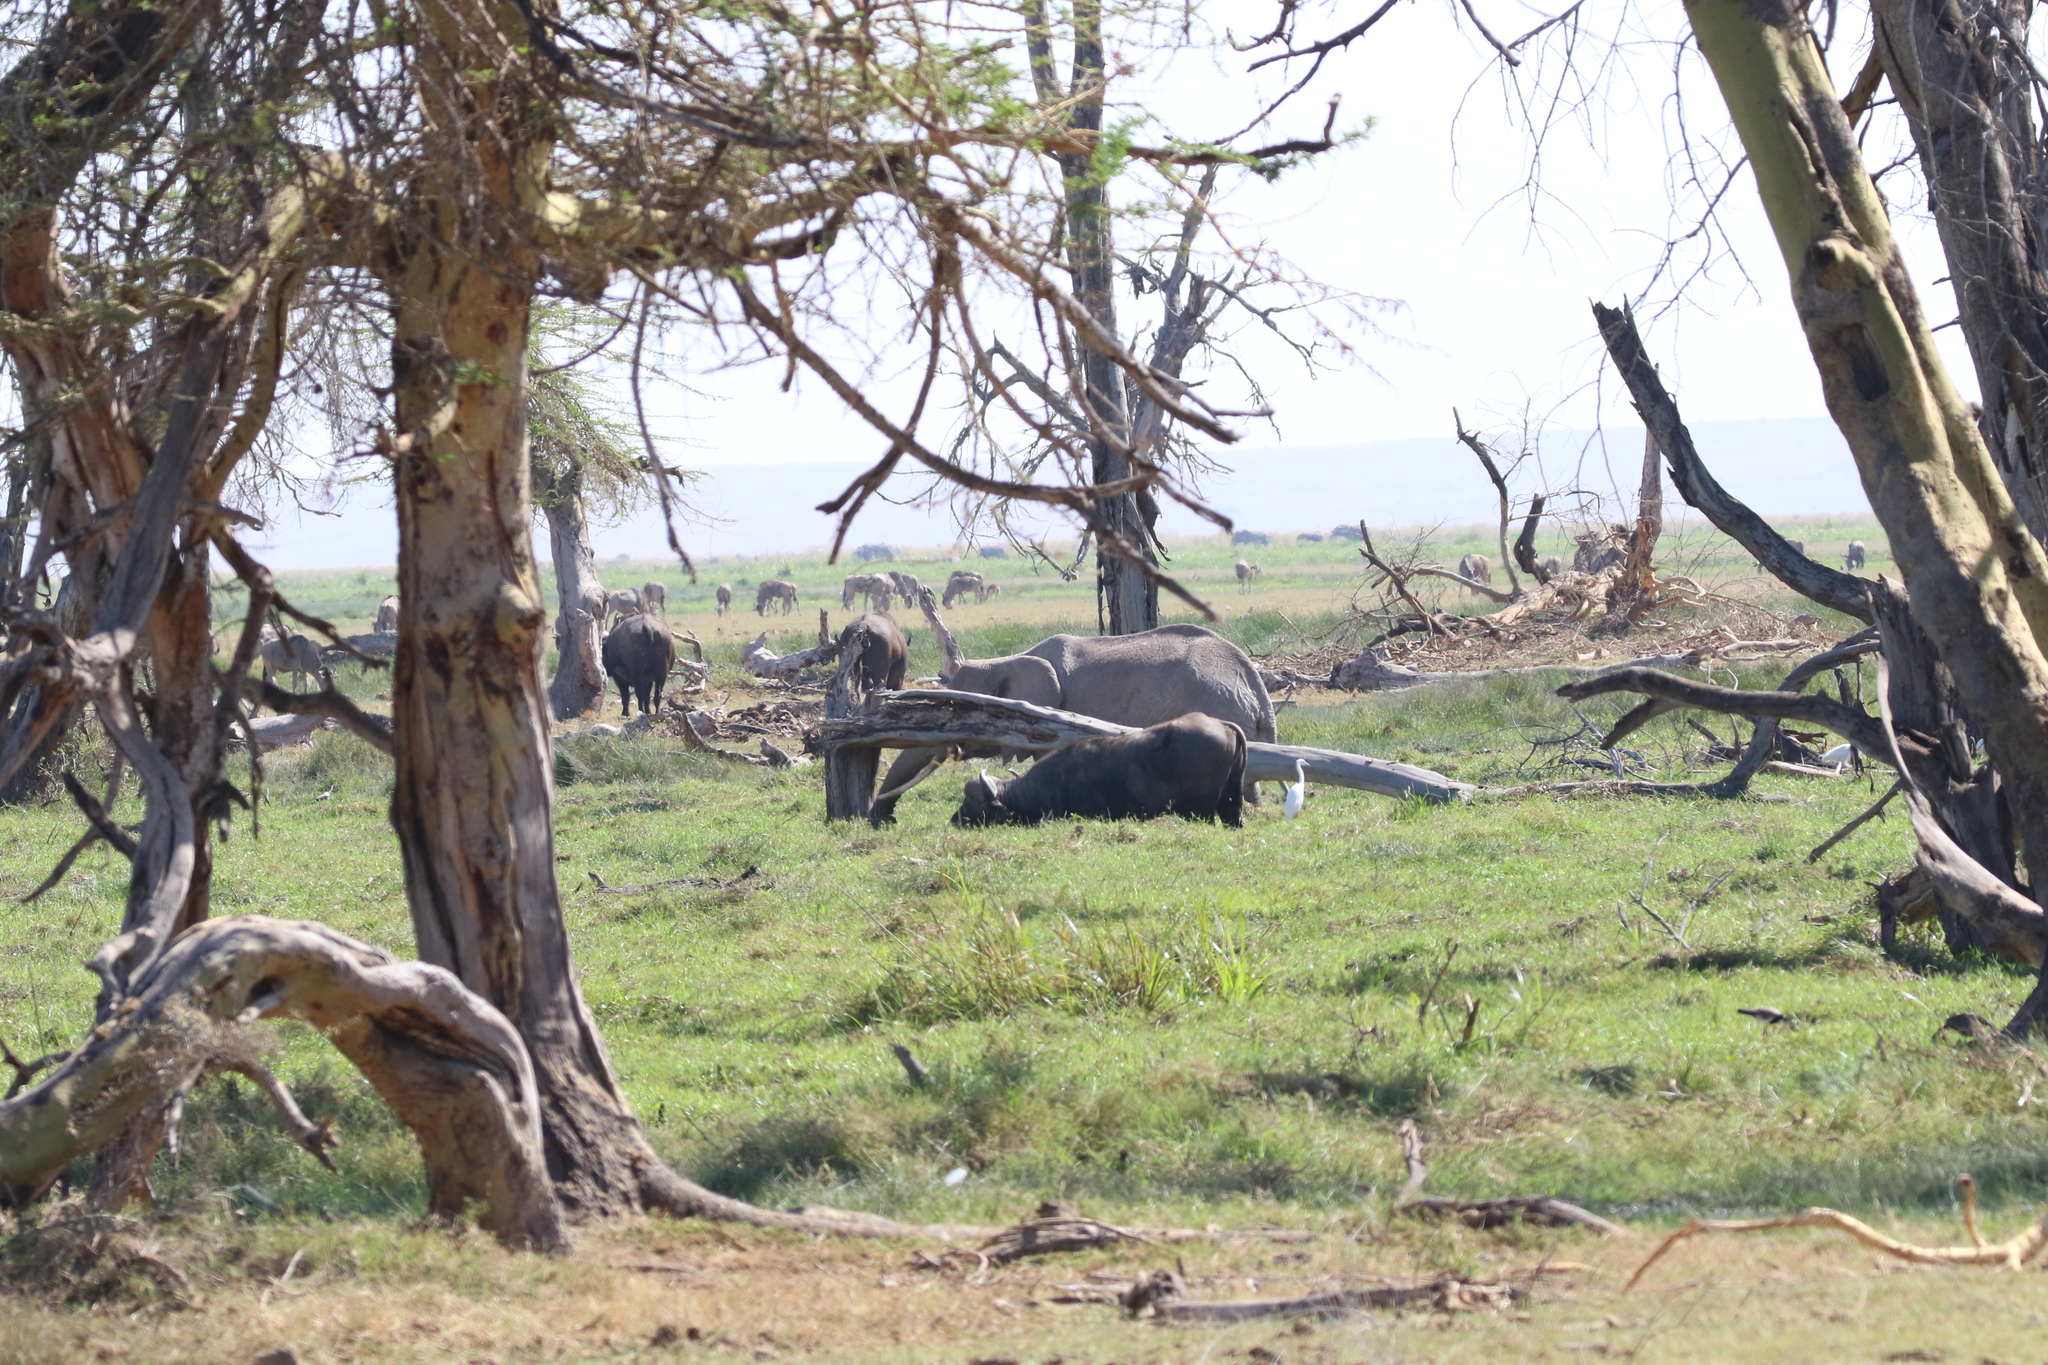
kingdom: Animalia
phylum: Chordata
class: Mammalia
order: Artiodactyla
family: Bovidae
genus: Syncerus
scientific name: Syncerus caffer
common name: African buffalo
